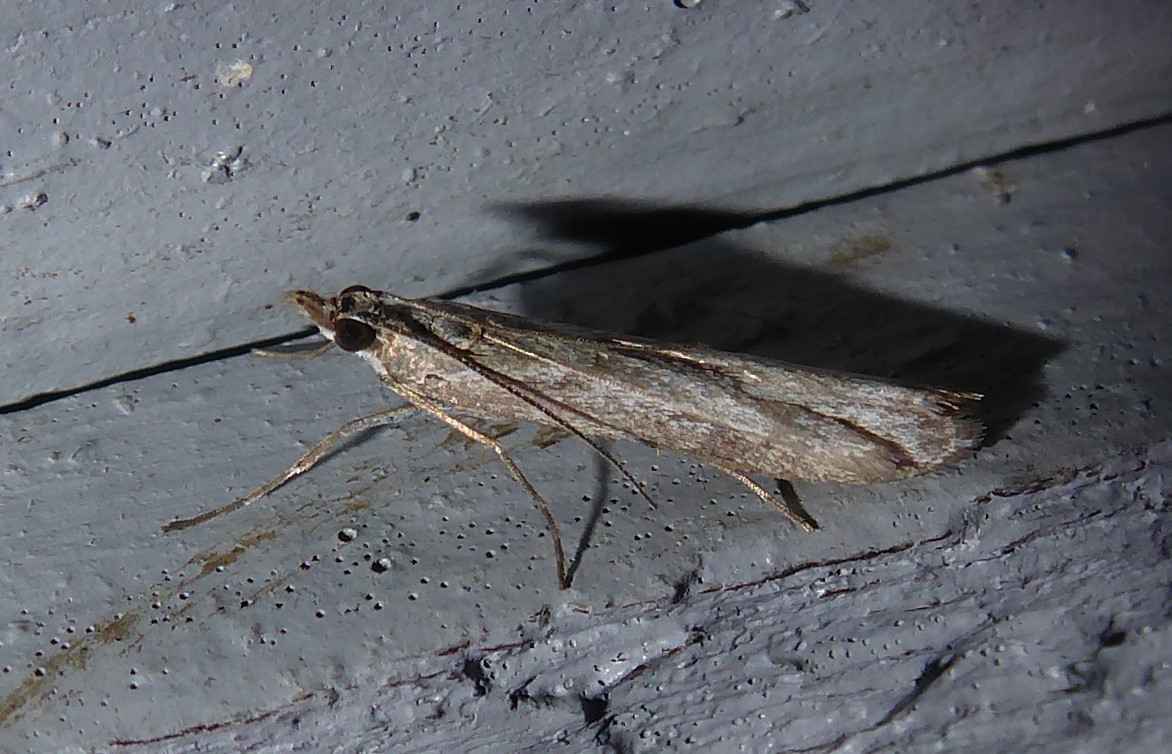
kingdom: Animalia
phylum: Arthropoda
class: Insecta
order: Lepidoptera
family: Crambidae
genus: Eudonia
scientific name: Eudonia leptalea
